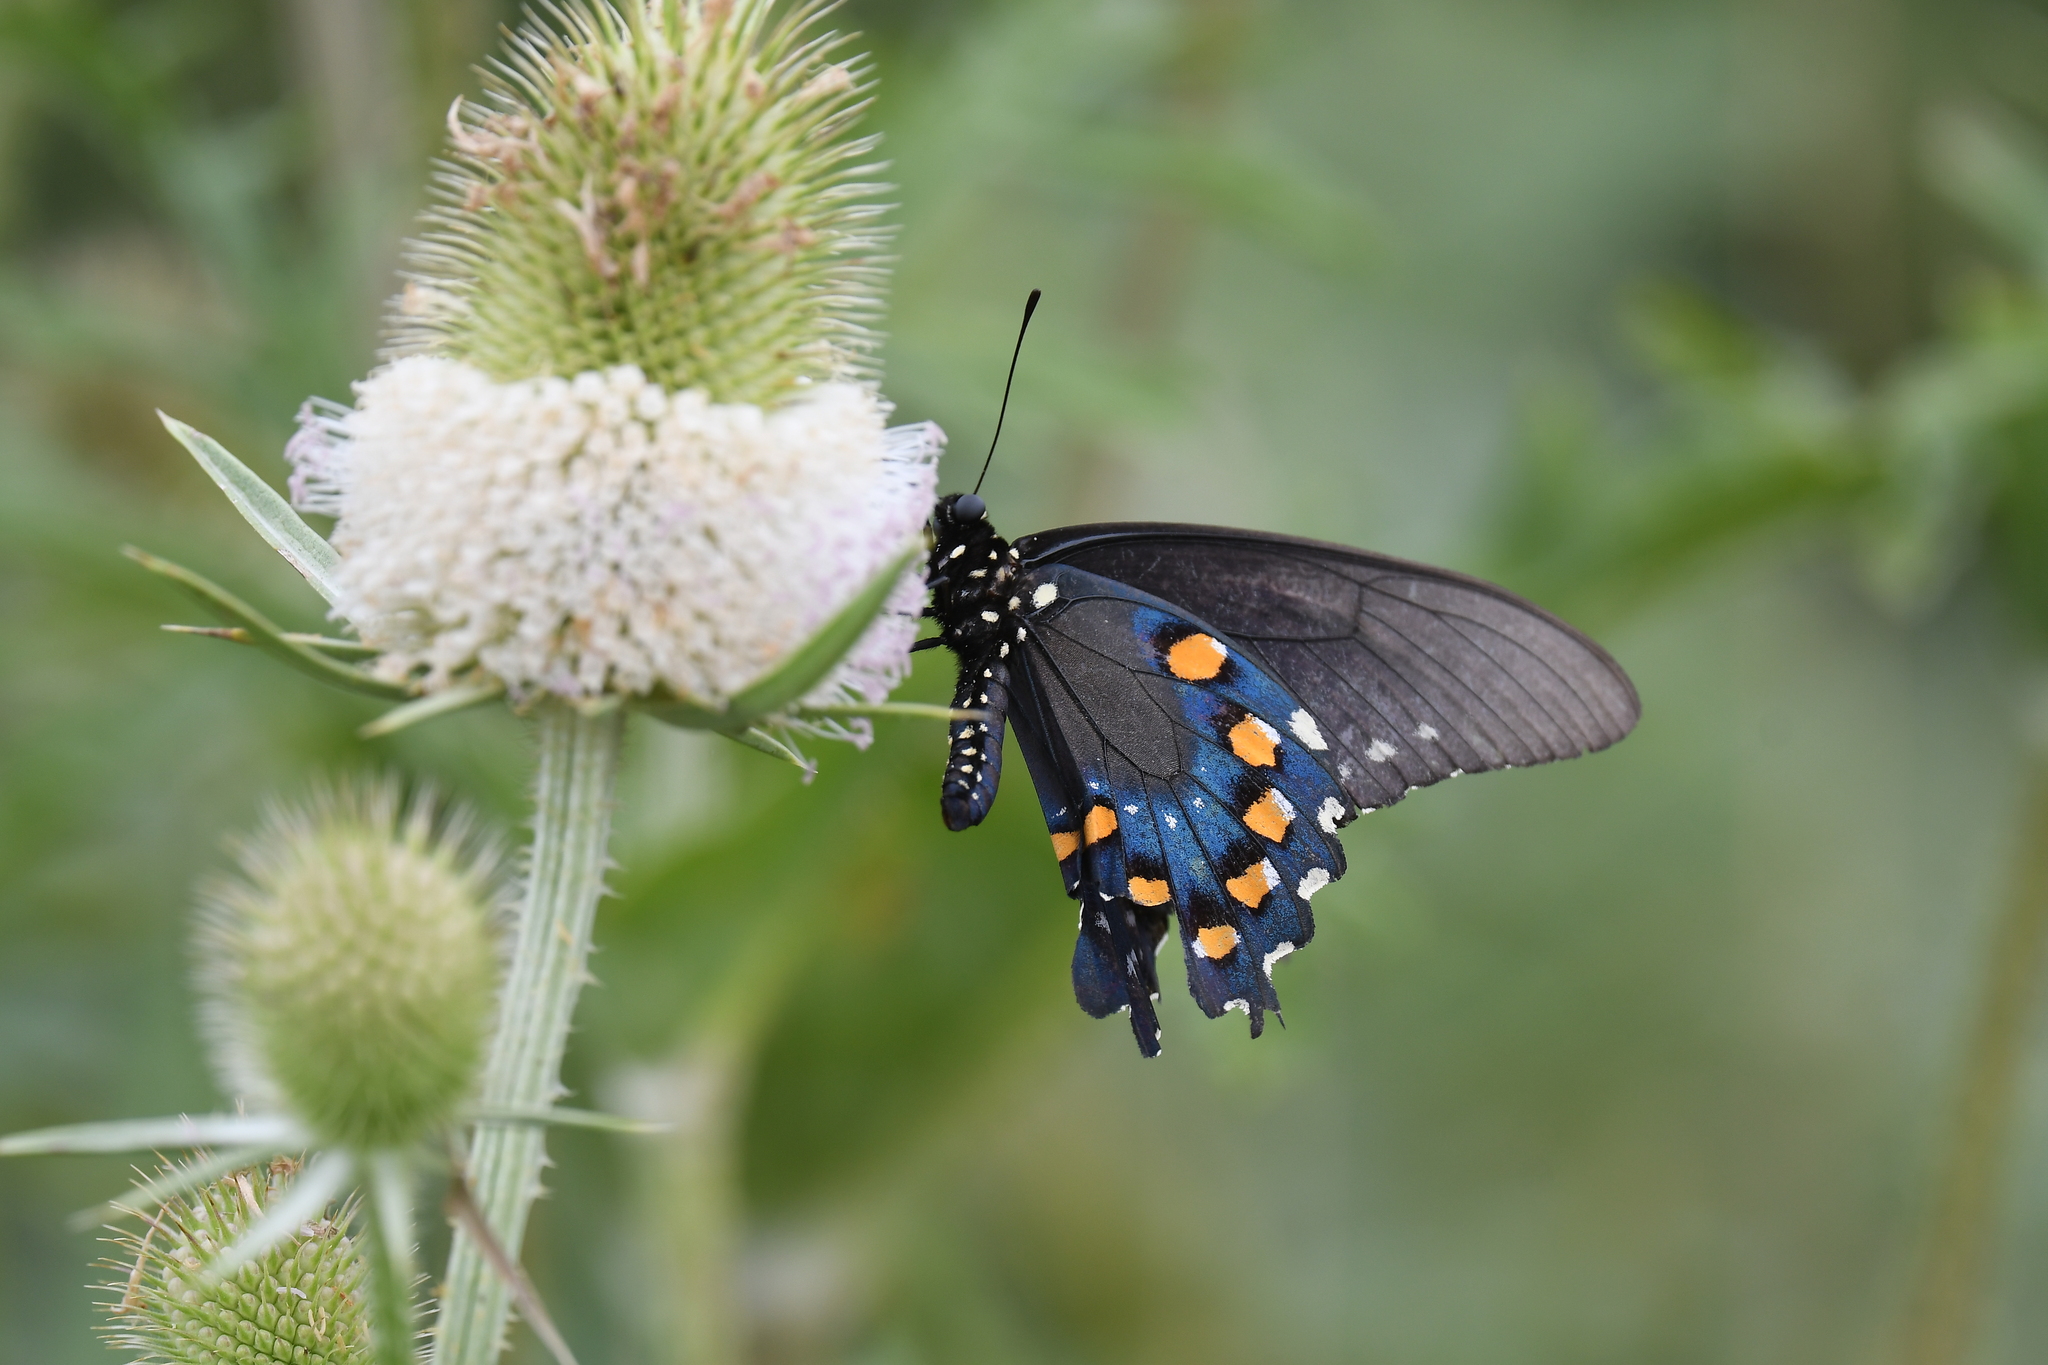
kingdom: Animalia
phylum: Arthropoda
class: Insecta
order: Lepidoptera
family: Papilionidae
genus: Battus
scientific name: Battus philenor
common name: Pipevine swallowtail
